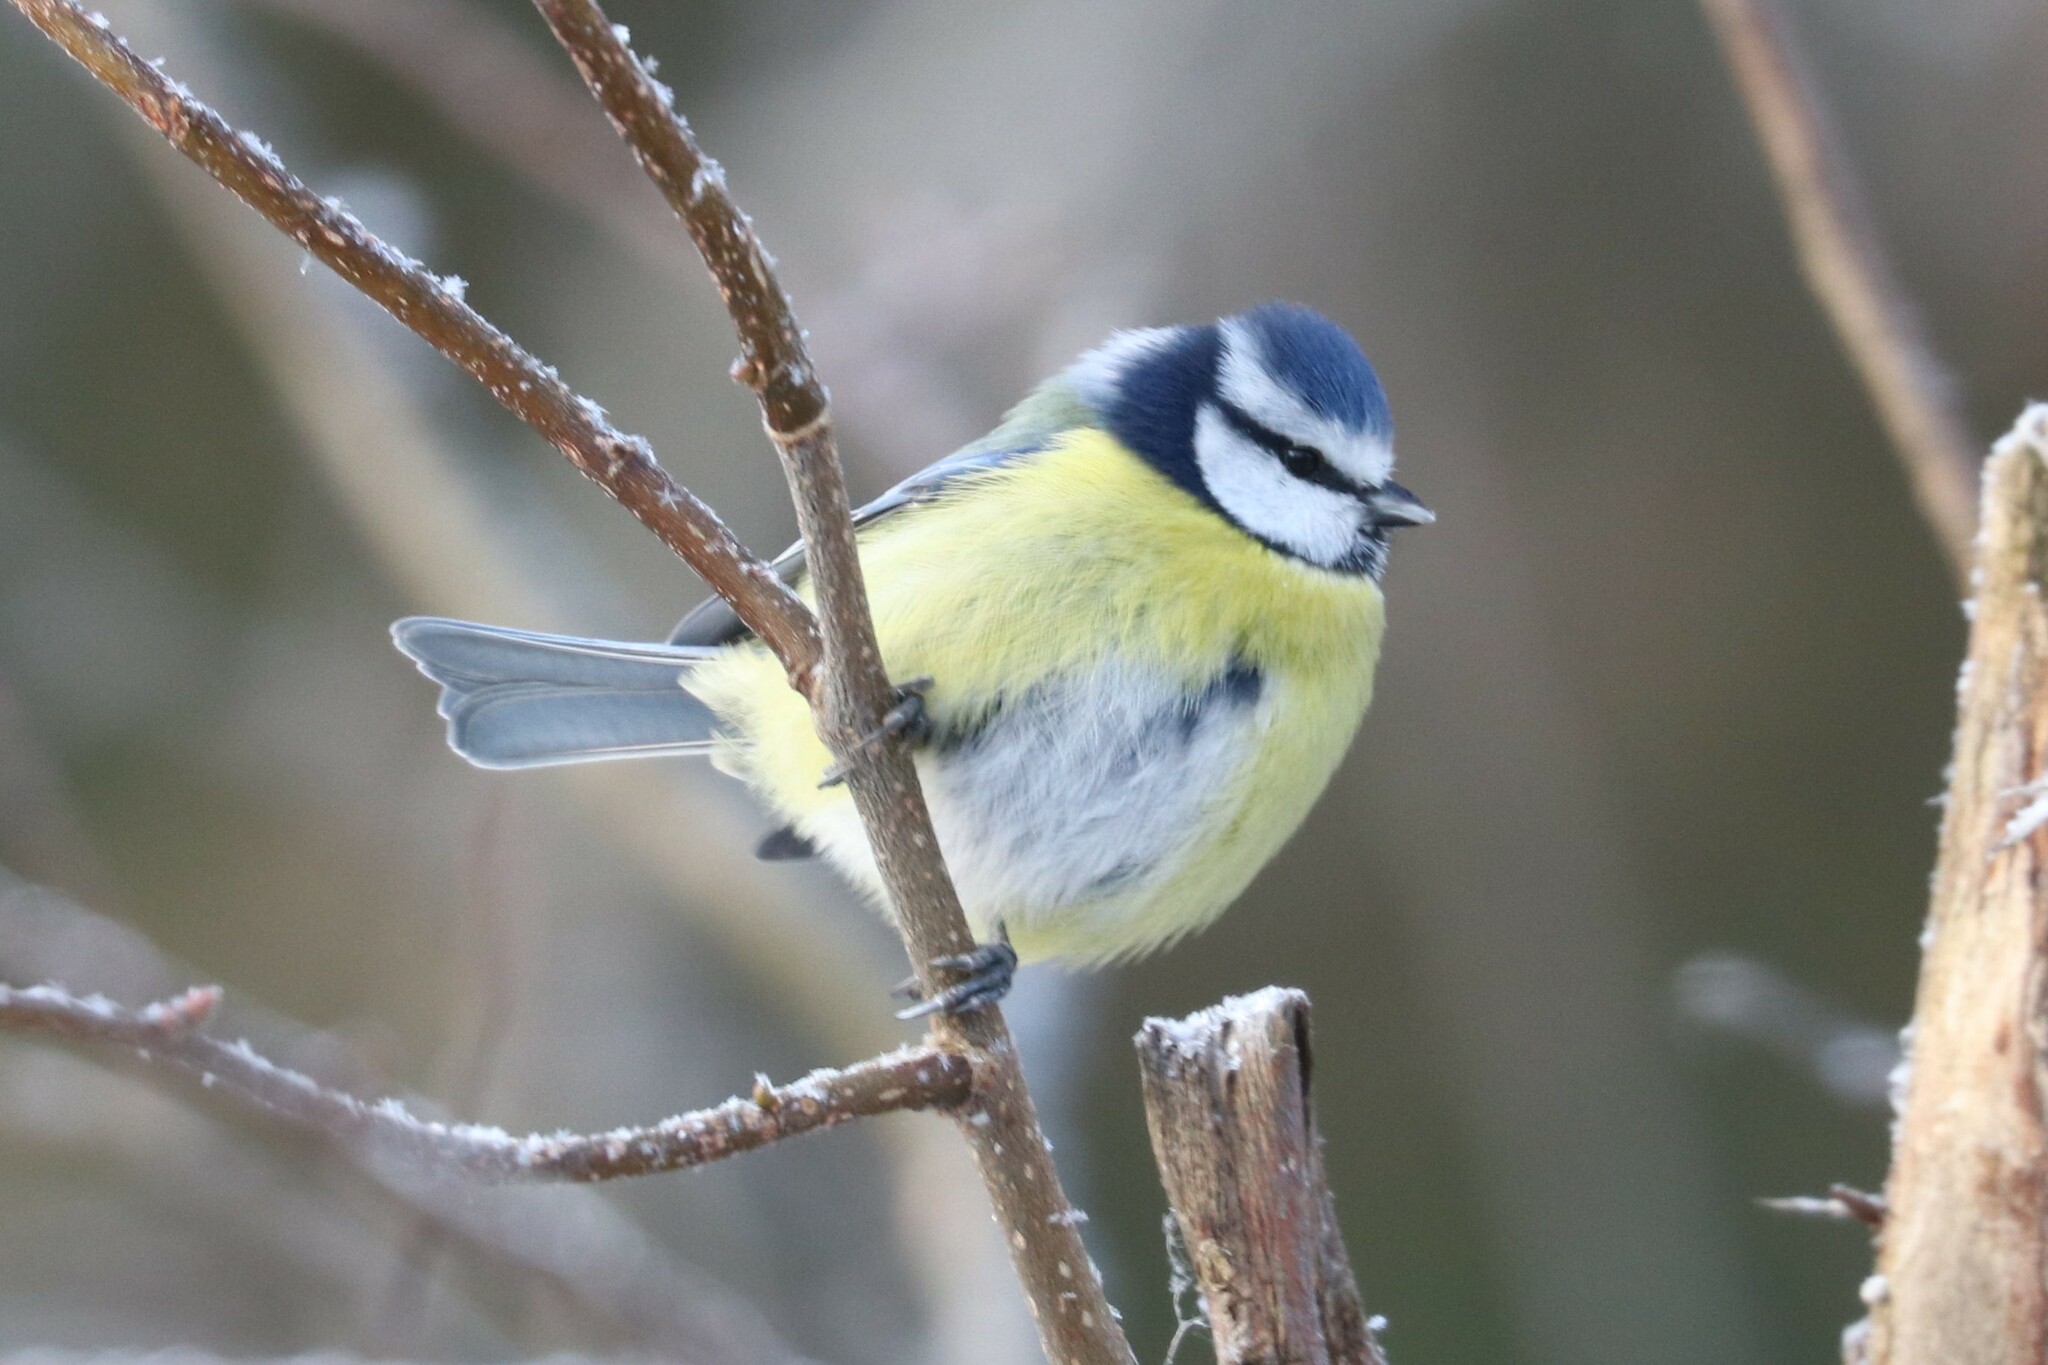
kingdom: Animalia
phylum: Chordata
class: Aves
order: Passeriformes
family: Paridae
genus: Cyanistes
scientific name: Cyanistes caeruleus
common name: Eurasian blue tit
